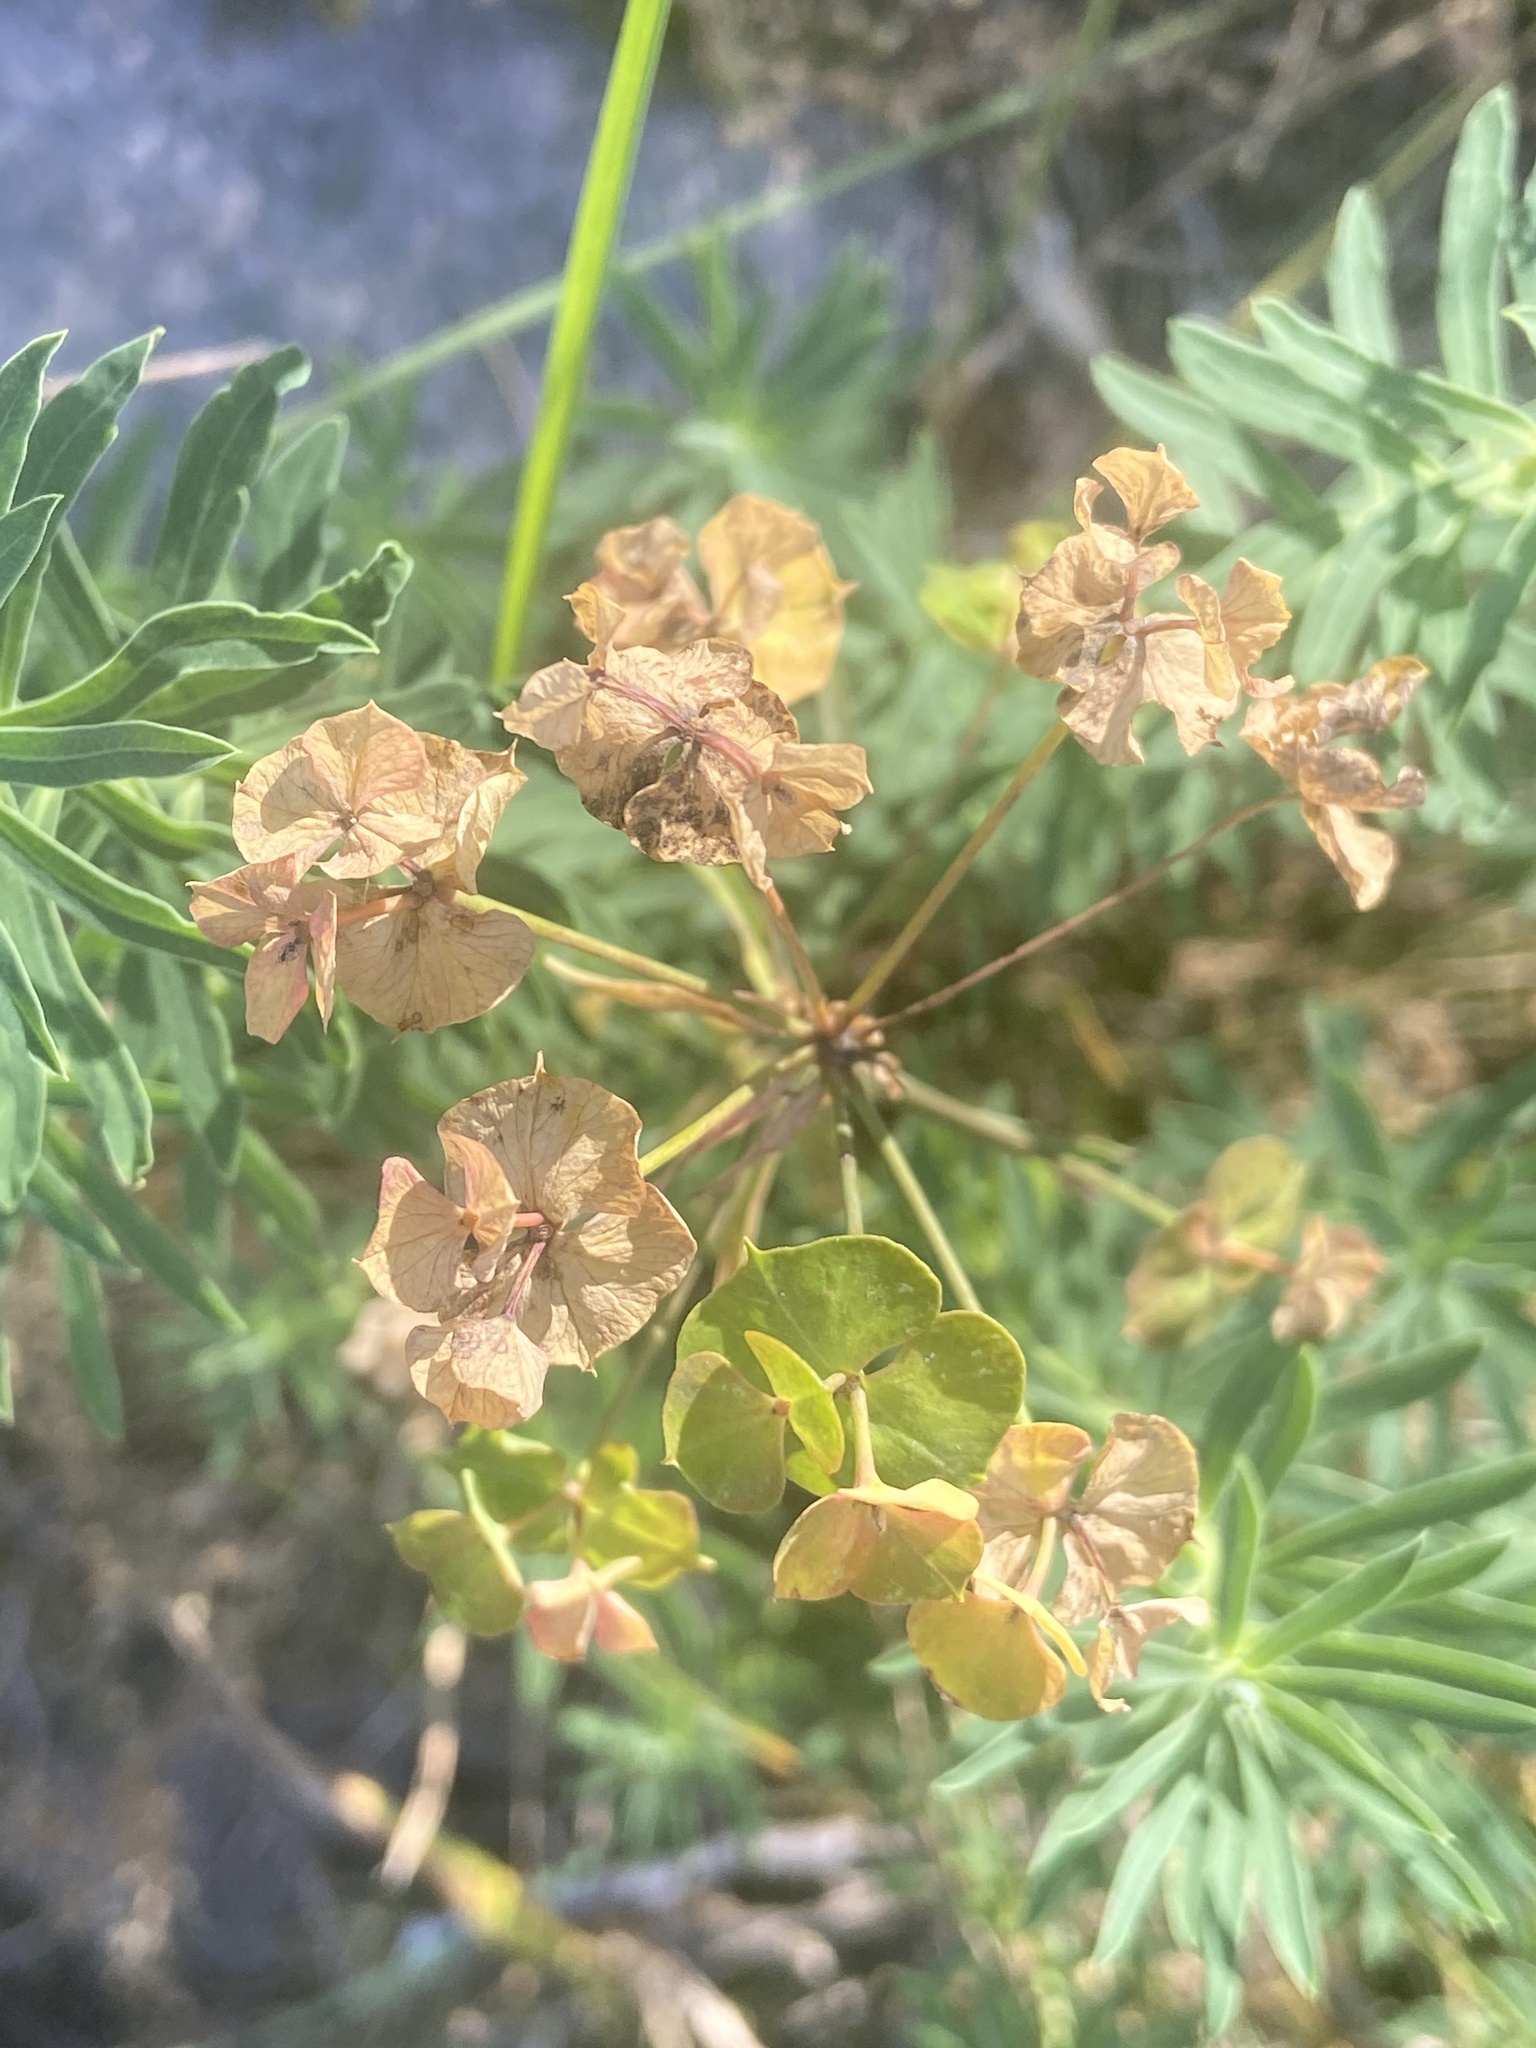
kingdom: Plantae
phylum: Tracheophyta
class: Magnoliopsida
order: Malpighiales
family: Euphorbiaceae
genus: Euphorbia
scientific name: Euphorbia cyparissias
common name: Cypress spurge
